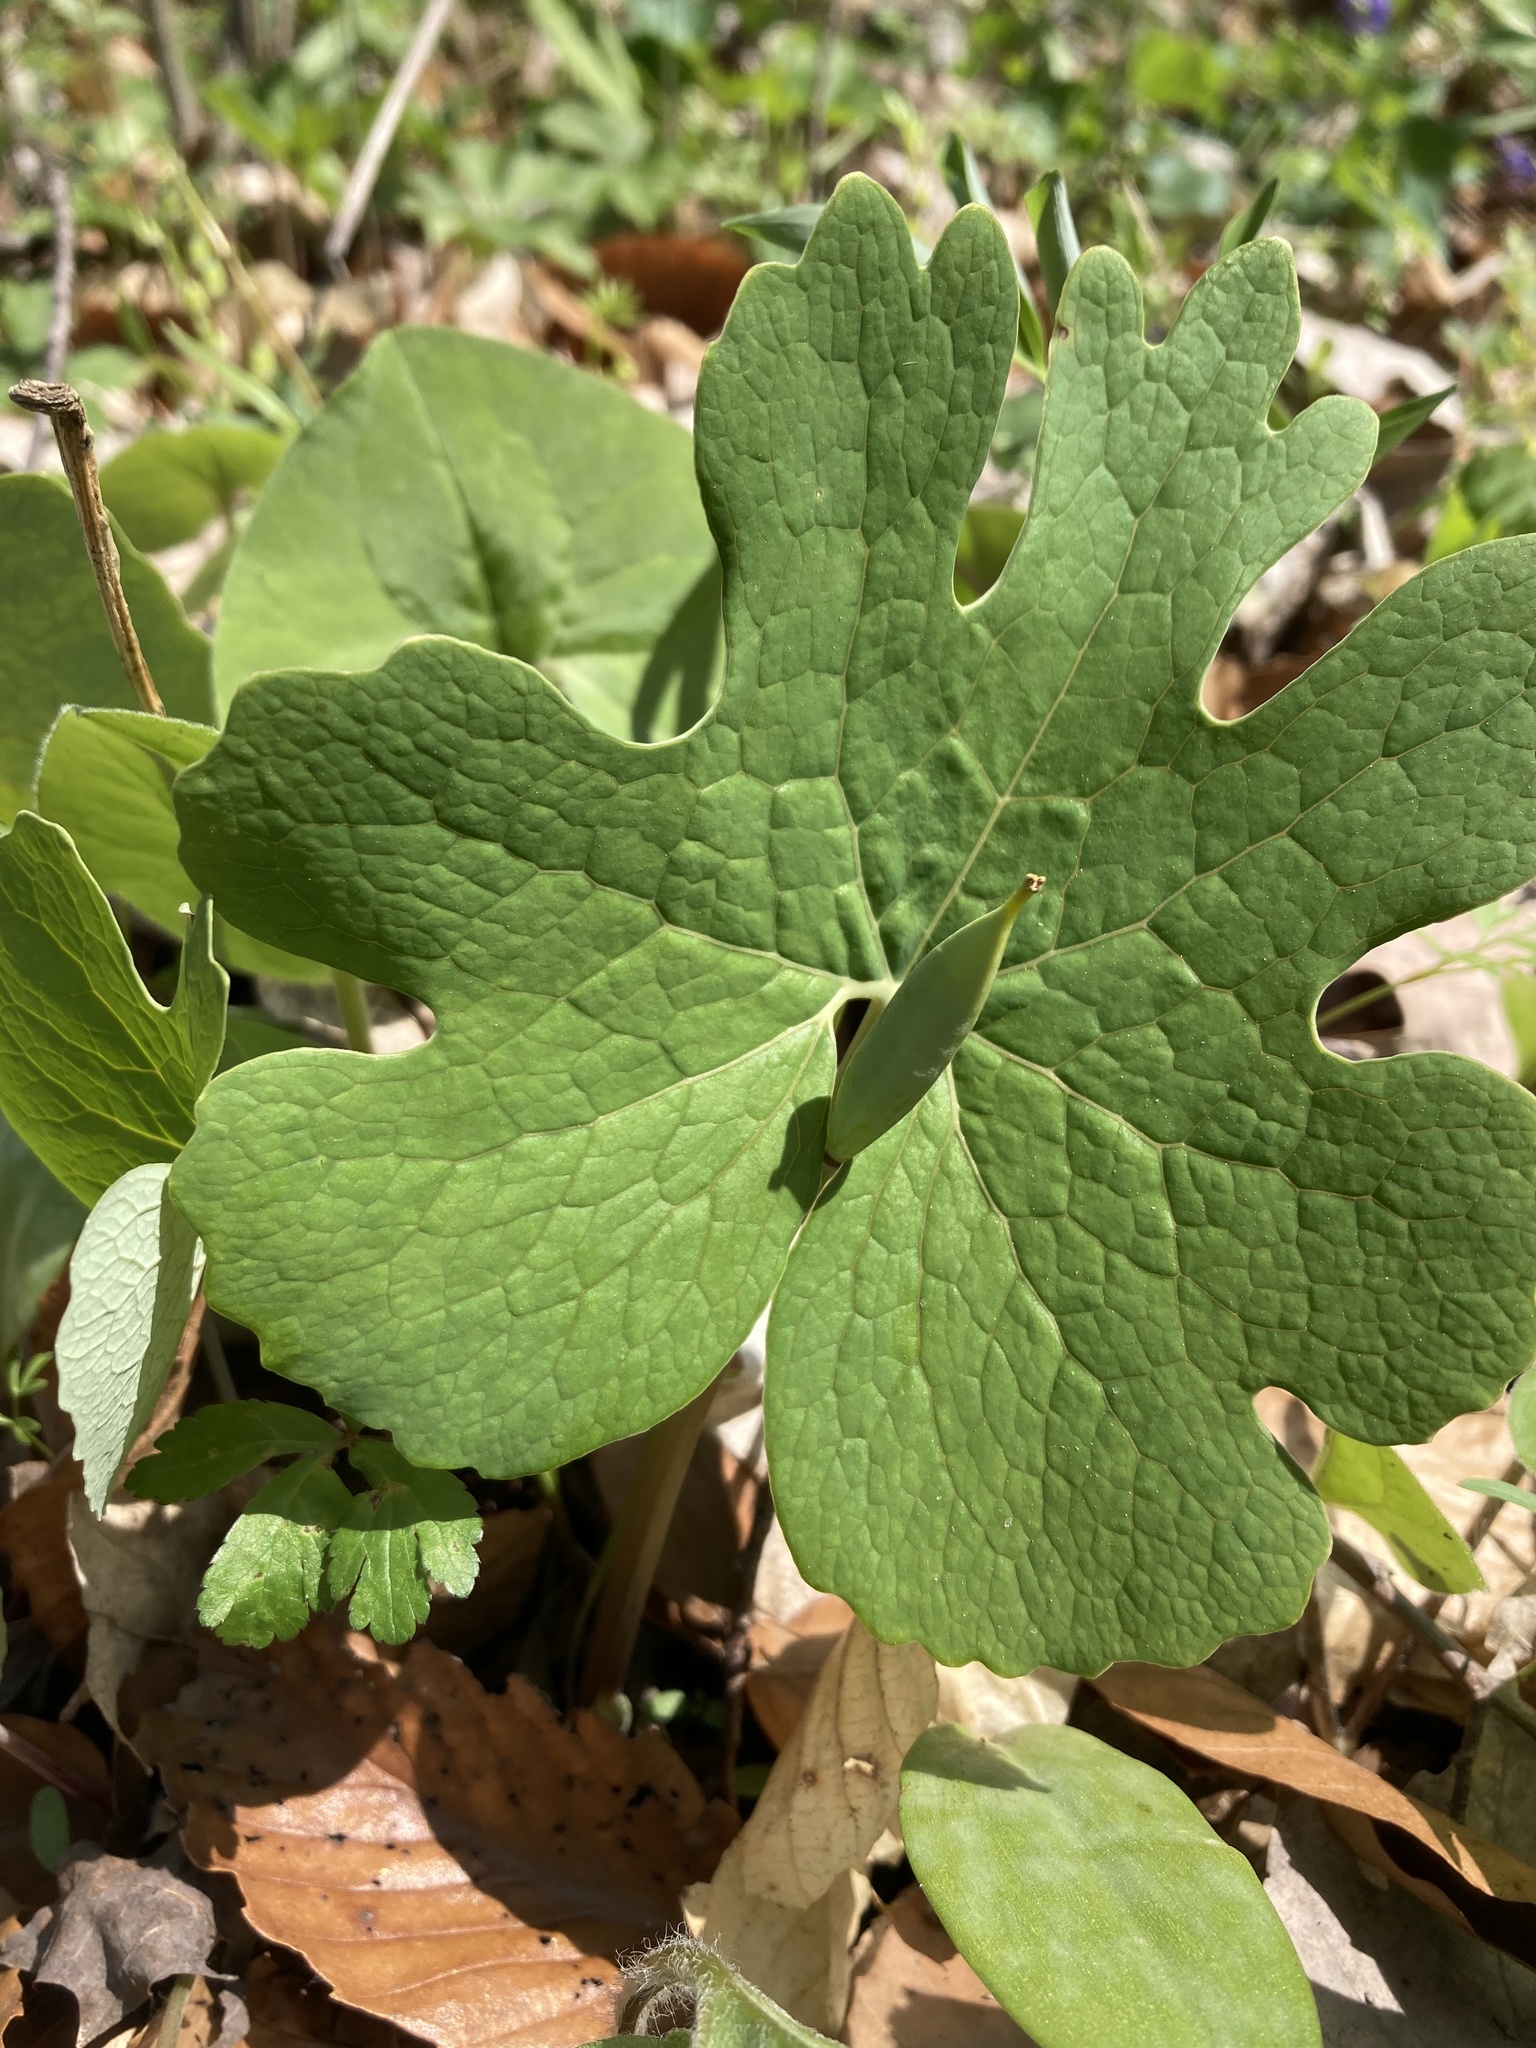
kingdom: Plantae
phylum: Tracheophyta
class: Magnoliopsida
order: Ranunculales
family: Papaveraceae
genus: Sanguinaria
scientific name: Sanguinaria canadensis
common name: Bloodroot
